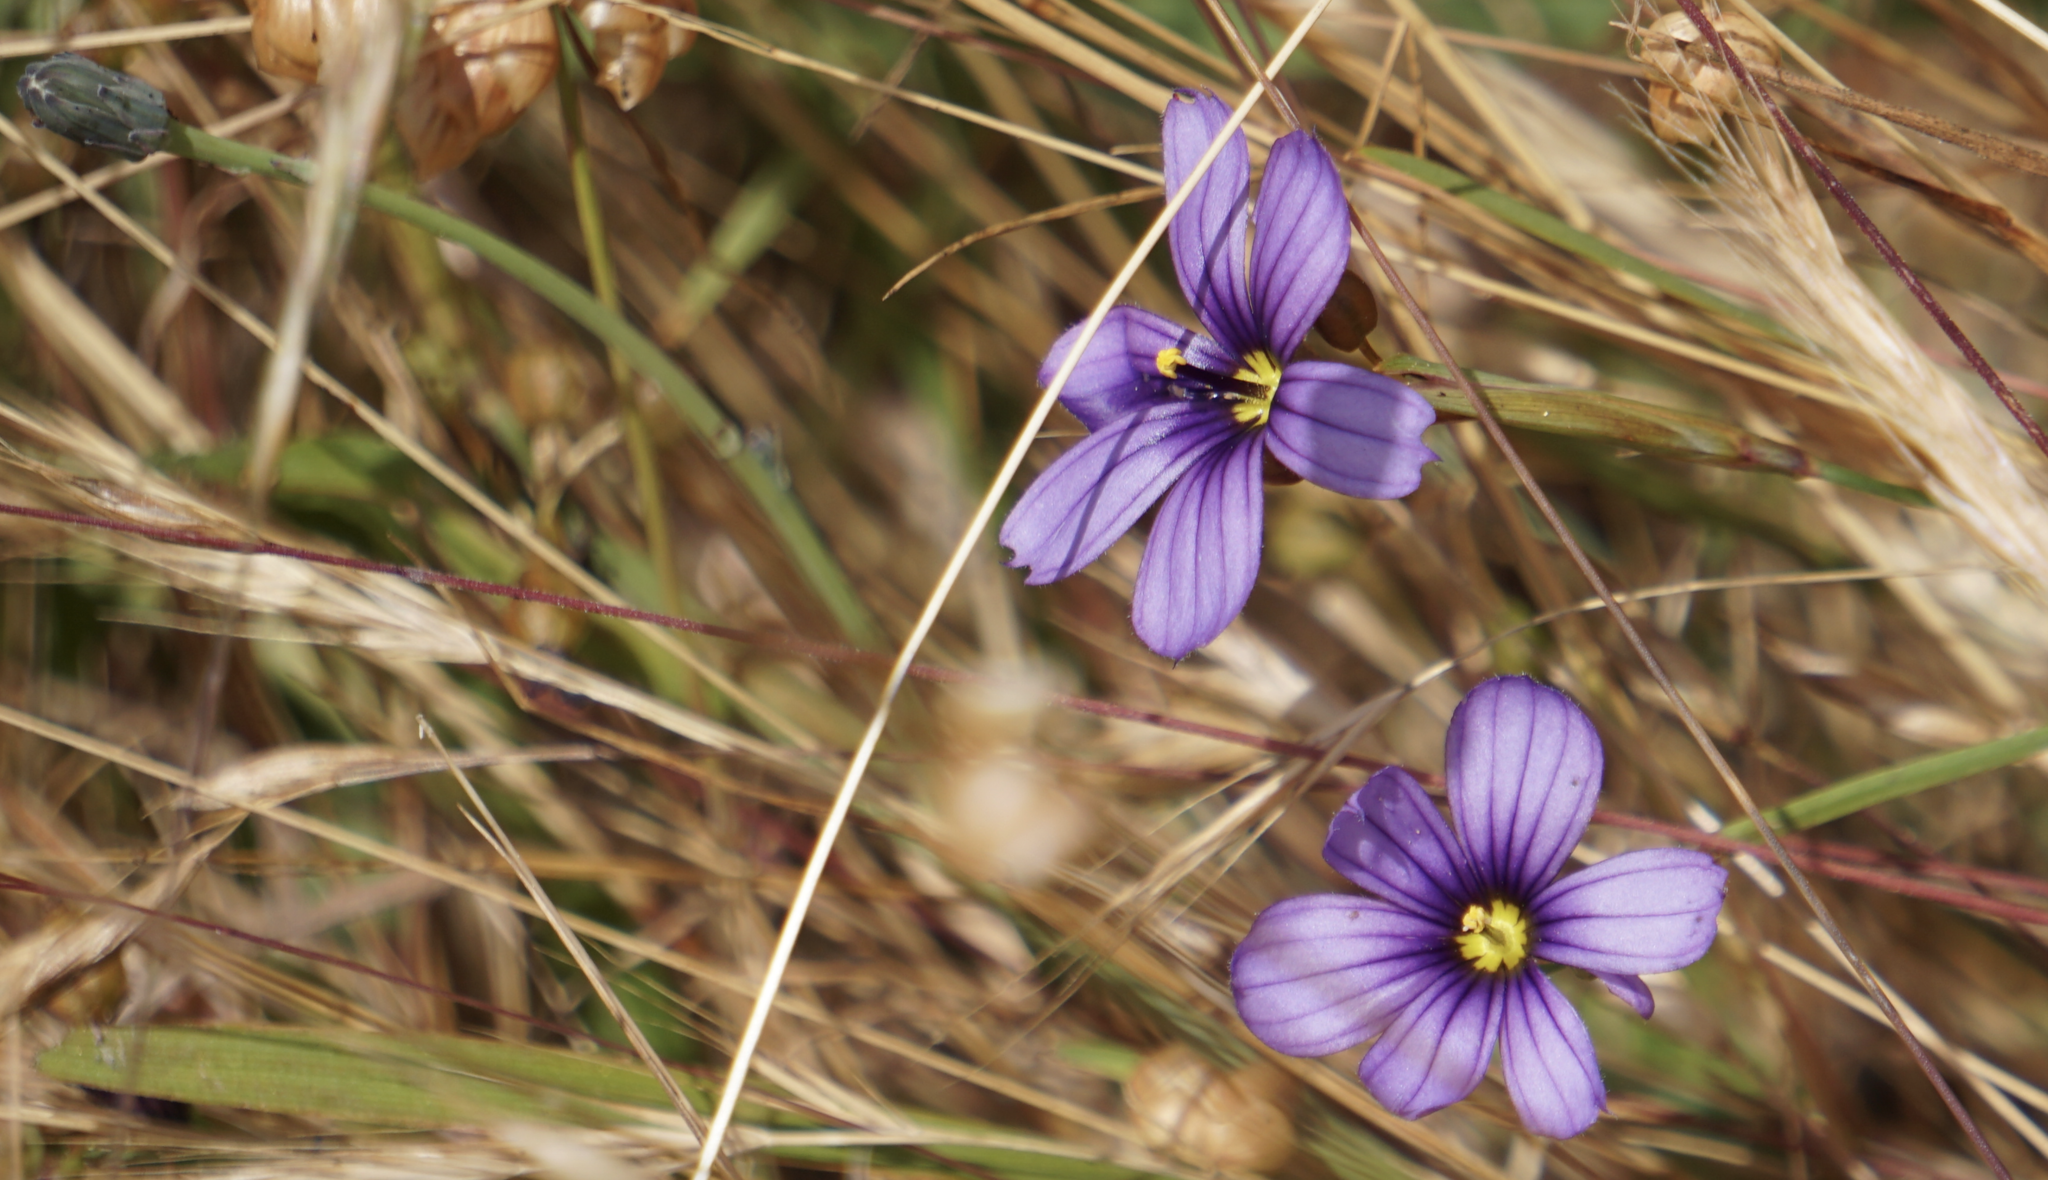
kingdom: Plantae
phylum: Tracheophyta
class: Liliopsida
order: Asparagales
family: Iridaceae
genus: Sisyrinchium
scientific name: Sisyrinchium bellum
